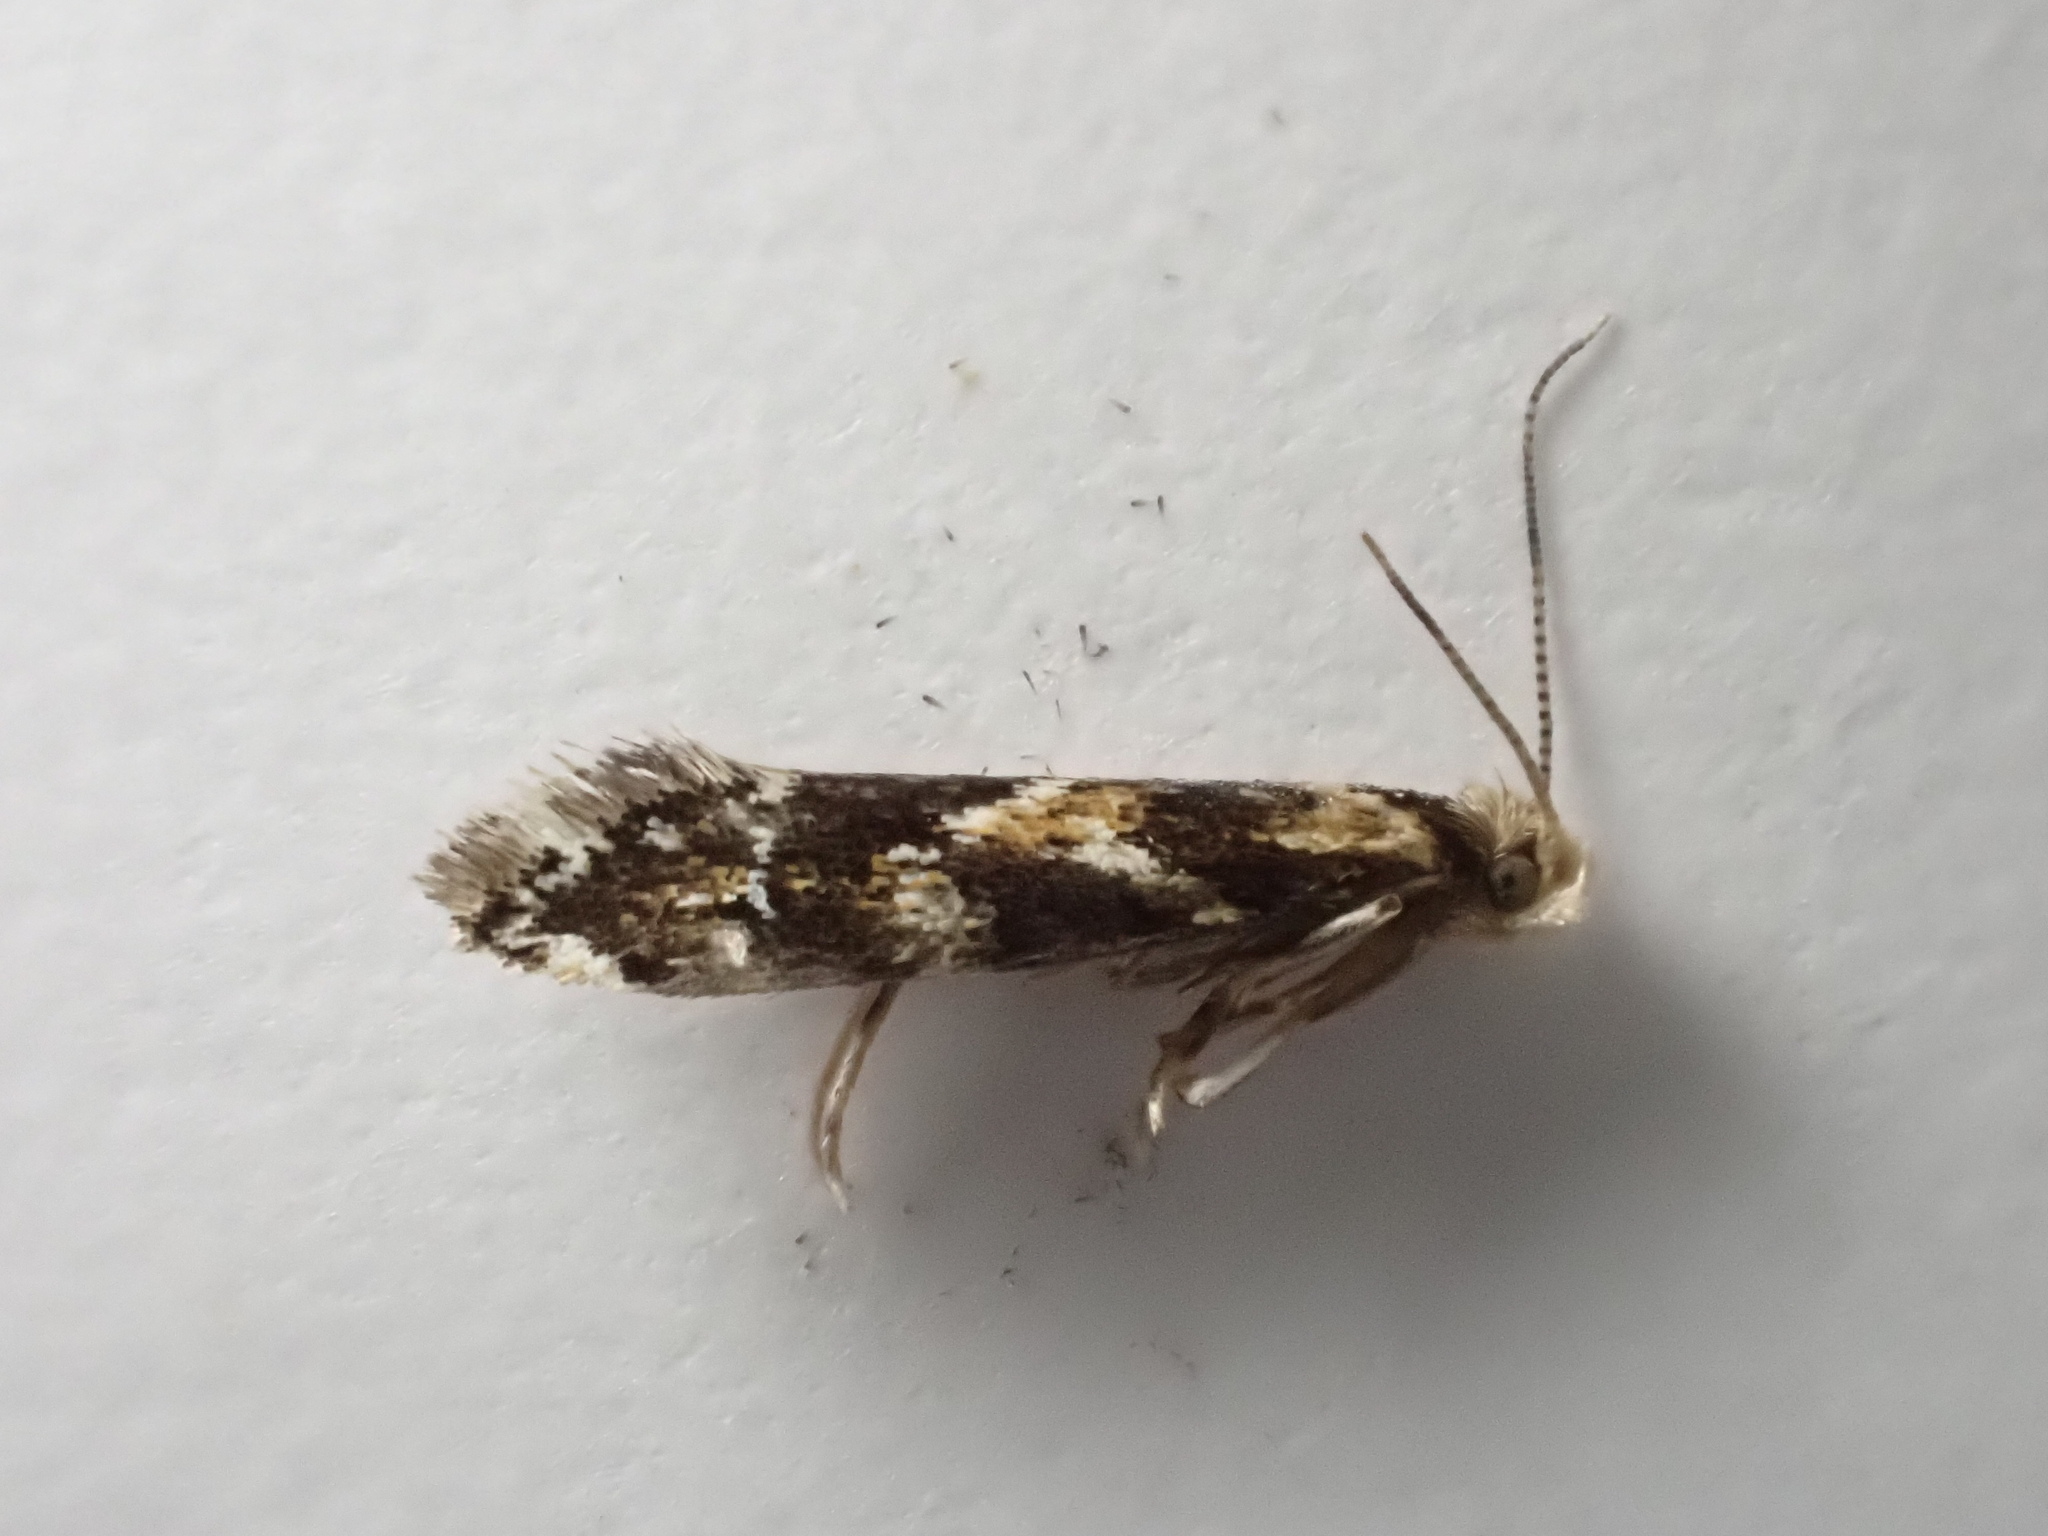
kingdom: Animalia
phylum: Arthropoda
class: Insecta
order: Lepidoptera
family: Dryadaulidae
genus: Dryadaula
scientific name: Dryadaula pactolia
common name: Cellar clothes
